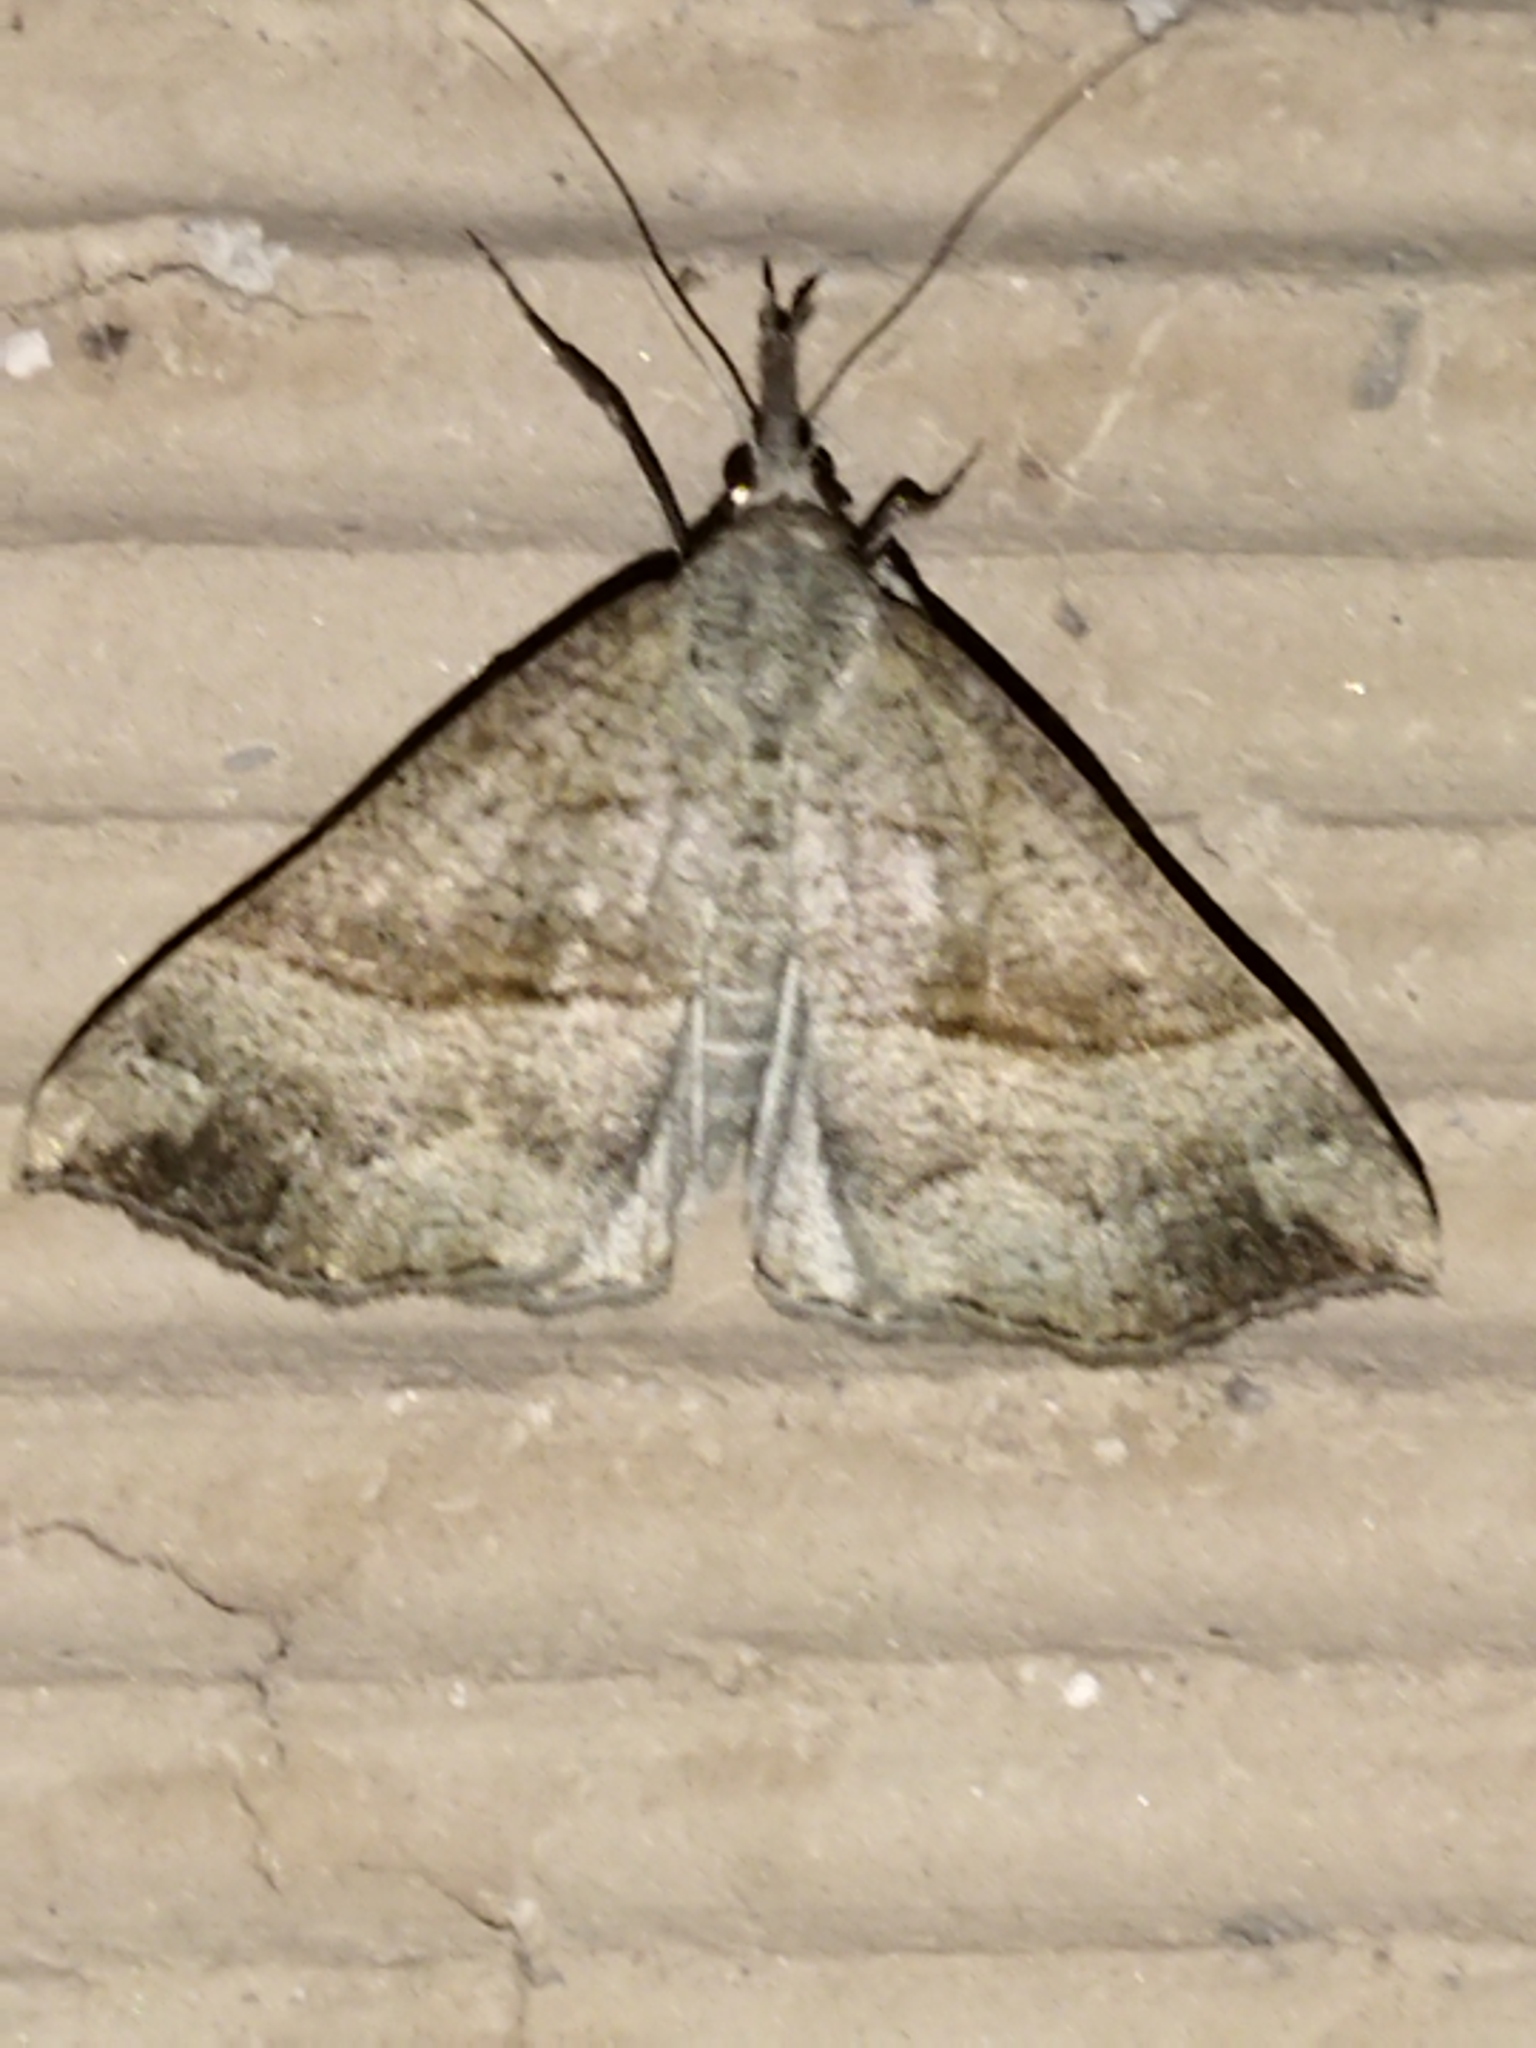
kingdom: Animalia
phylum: Arthropoda
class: Insecta
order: Lepidoptera
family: Erebidae
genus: Hypena
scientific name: Hypena proboscidalis
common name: Snout
